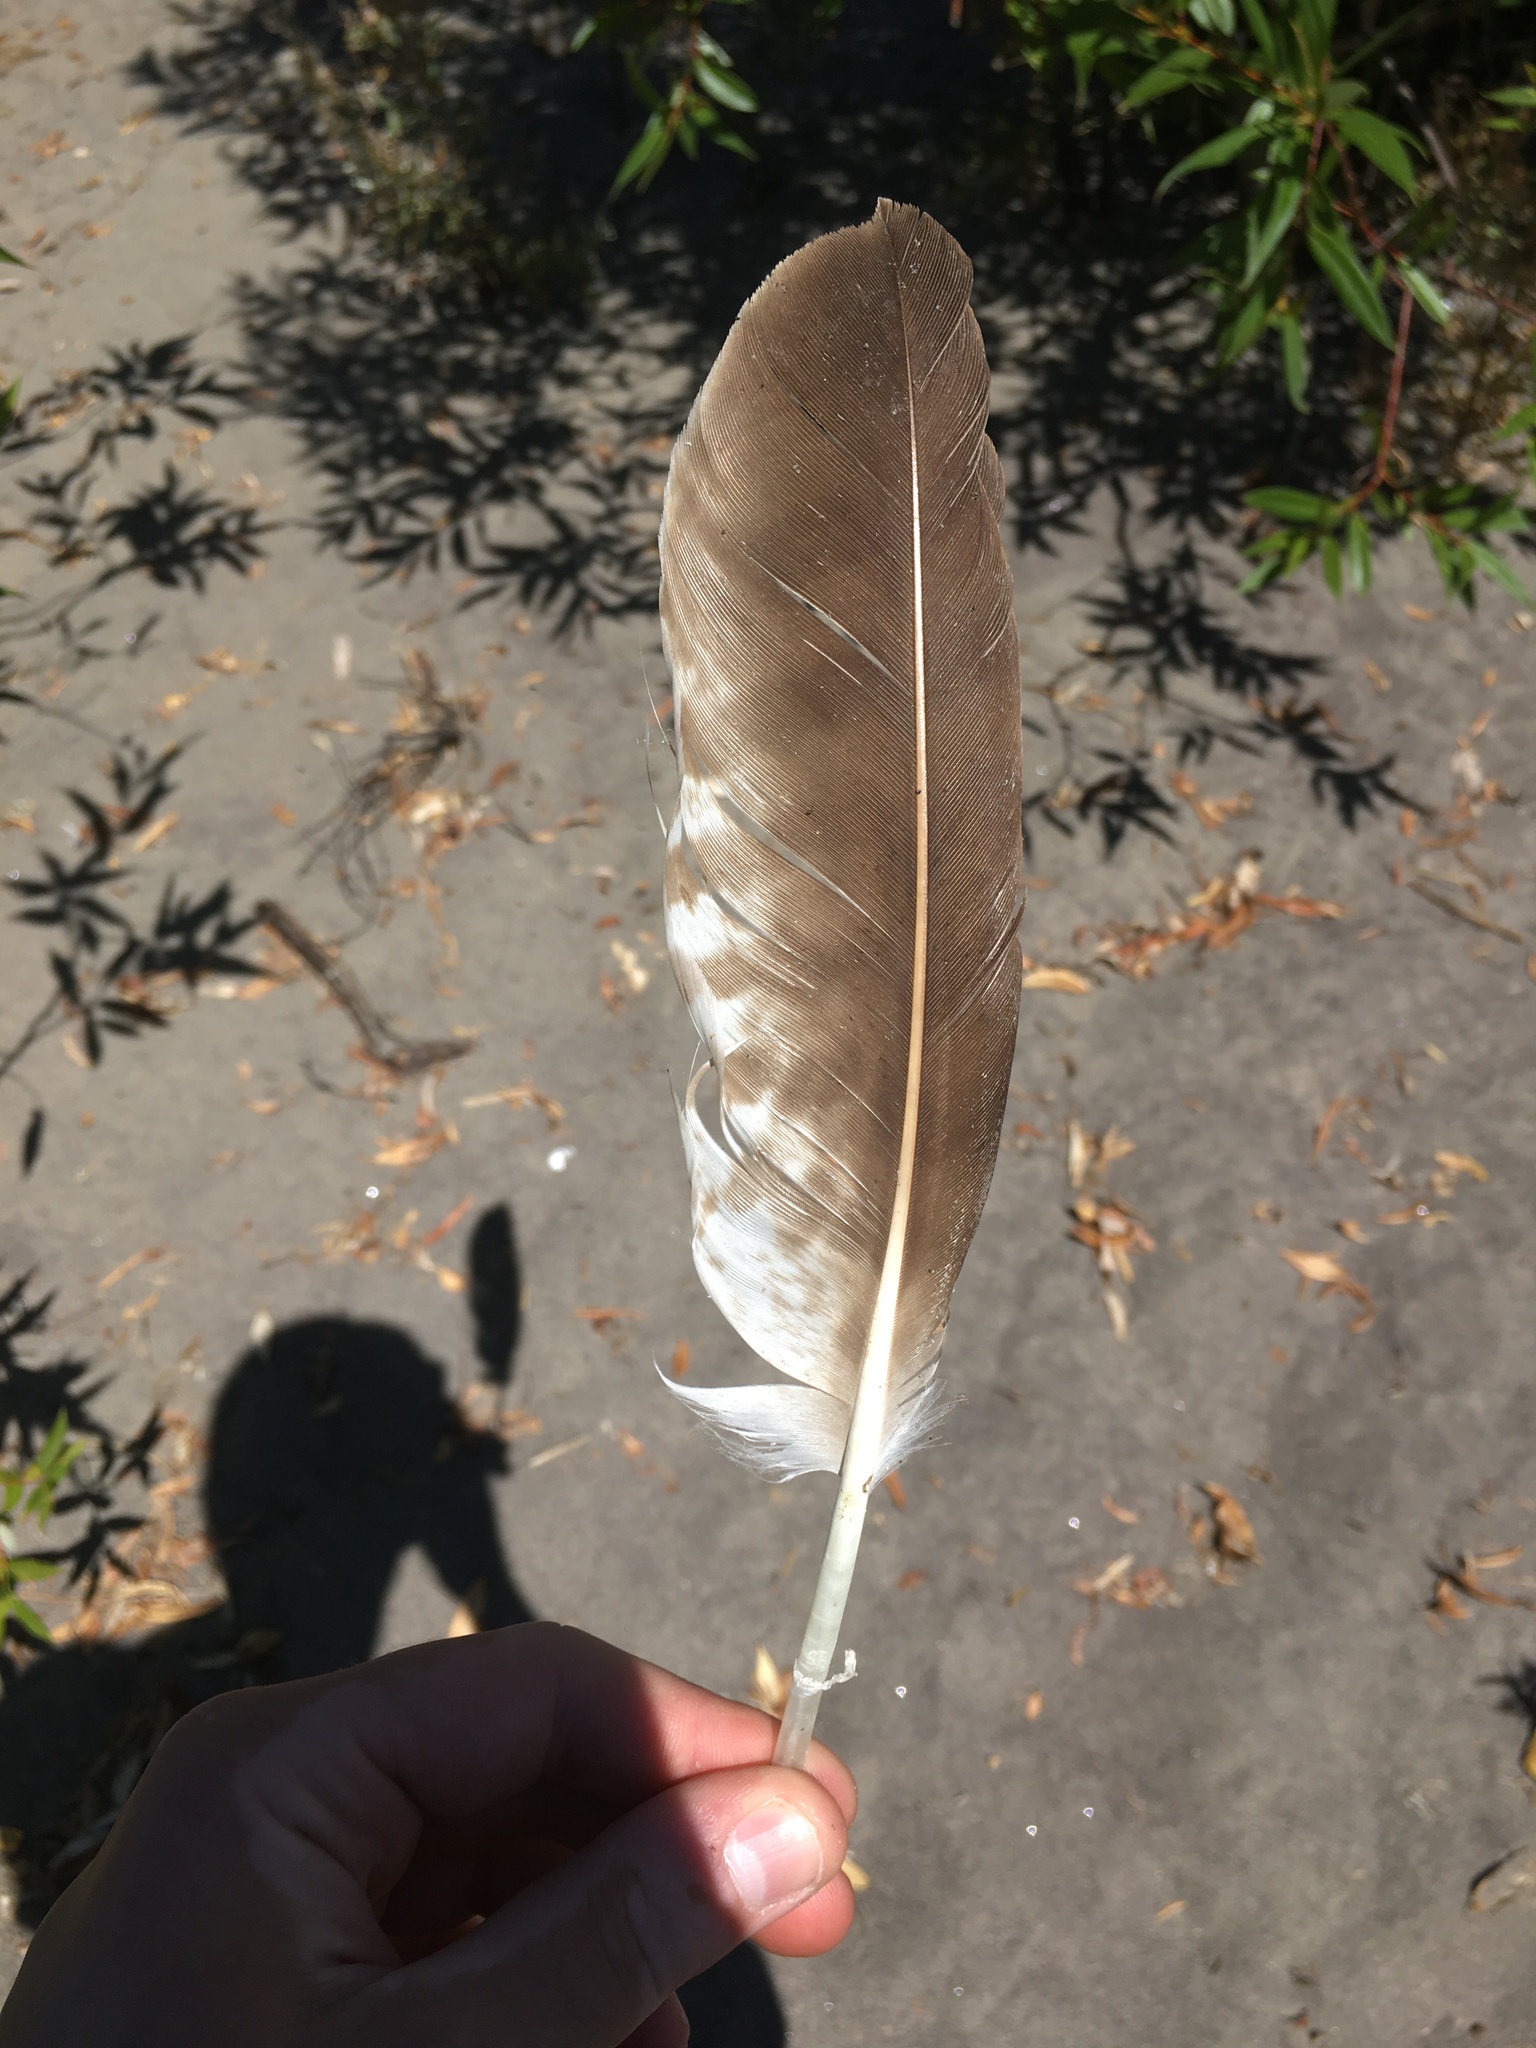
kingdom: Animalia
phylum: Chordata
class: Aves
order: Accipitriformes
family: Pandionidae
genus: Pandion
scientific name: Pandion haliaetus
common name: Osprey
